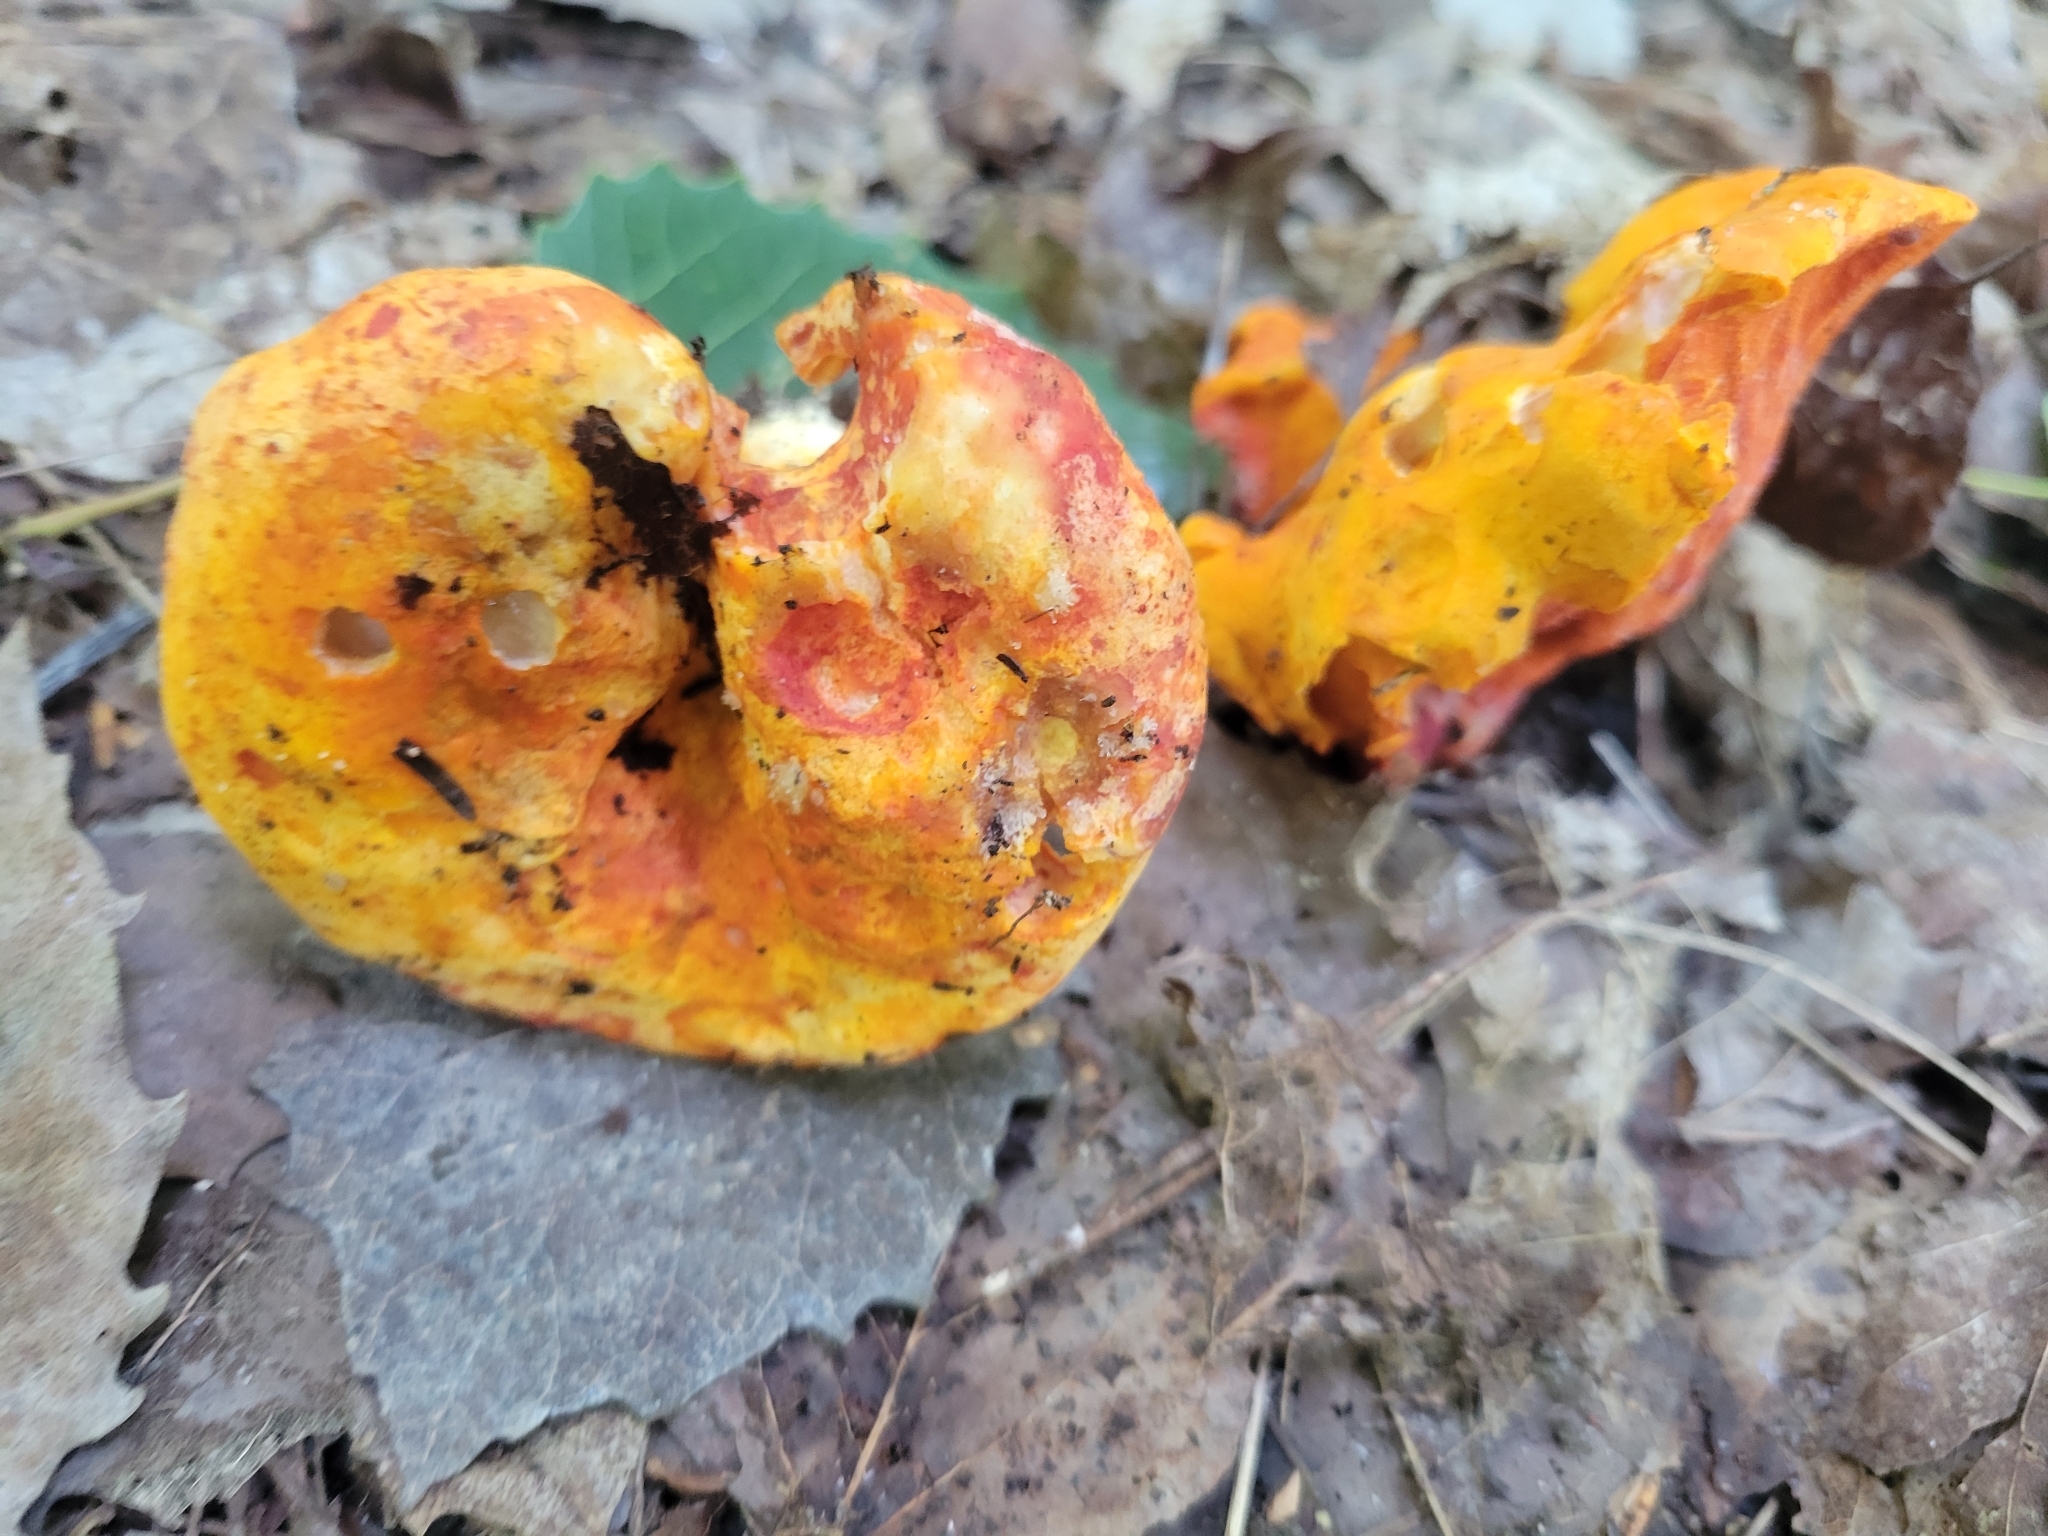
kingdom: Fungi
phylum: Ascomycota
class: Sordariomycetes
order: Hypocreales
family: Hypocreaceae
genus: Hypomyces
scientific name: Hypomyces lactifluorum
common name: Lobster mushroom
